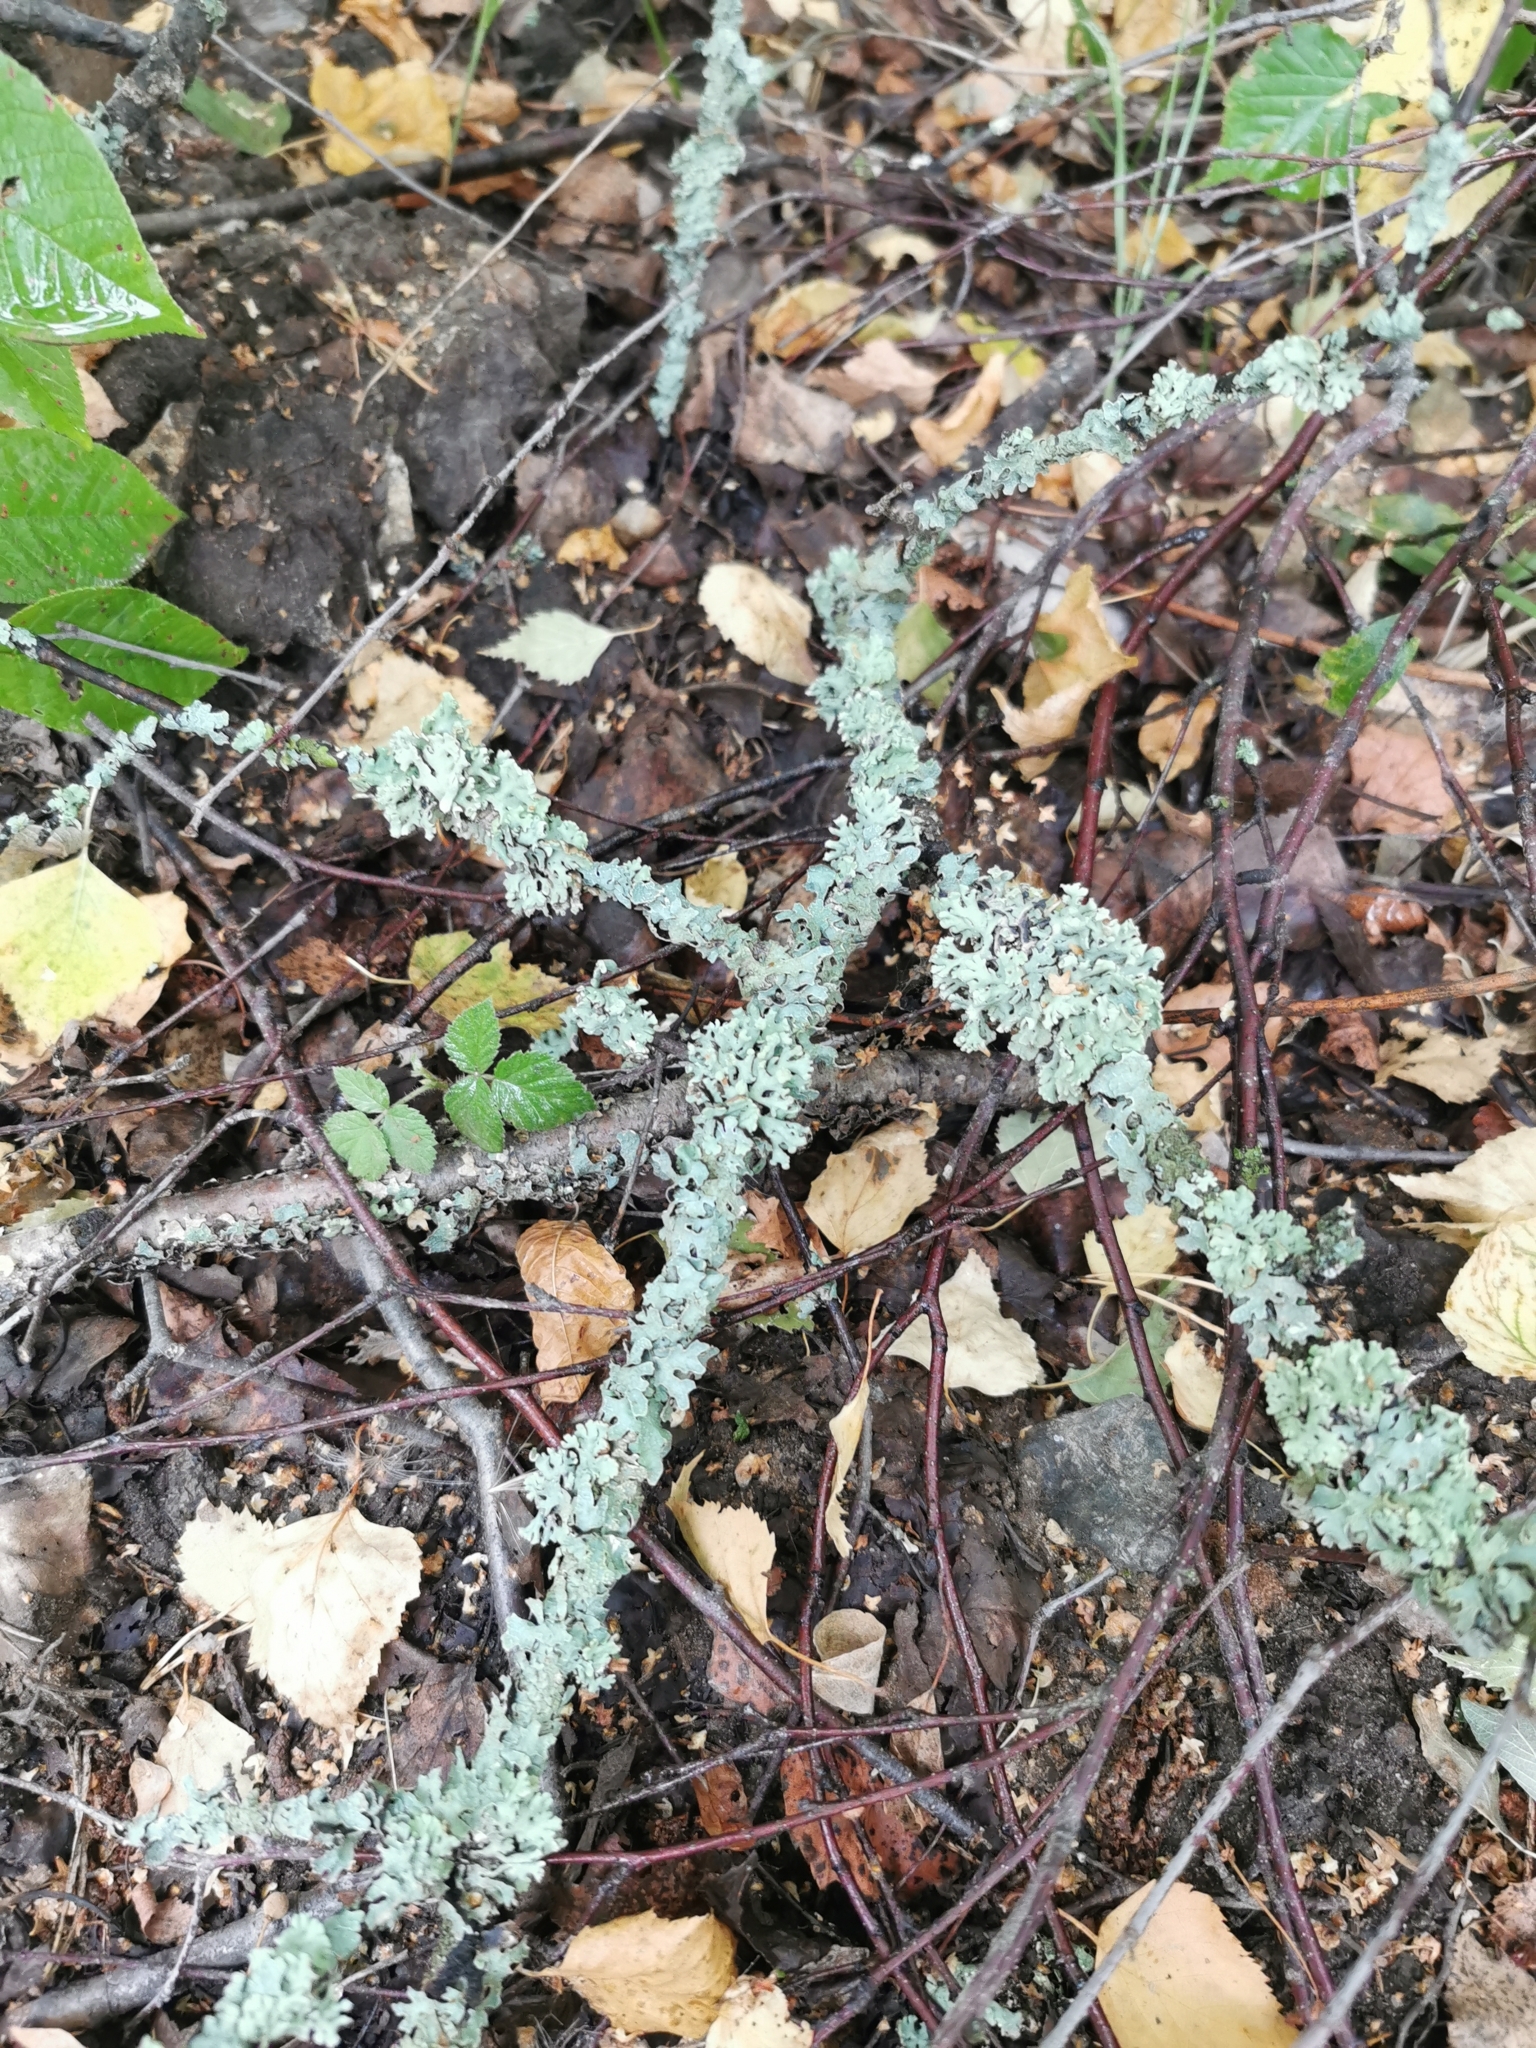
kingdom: Fungi
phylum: Ascomycota
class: Lecanoromycetes
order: Lecanorales
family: Parmeliaceae
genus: Hypogymnia
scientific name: Hypogymnia physodes
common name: Dark crottle
